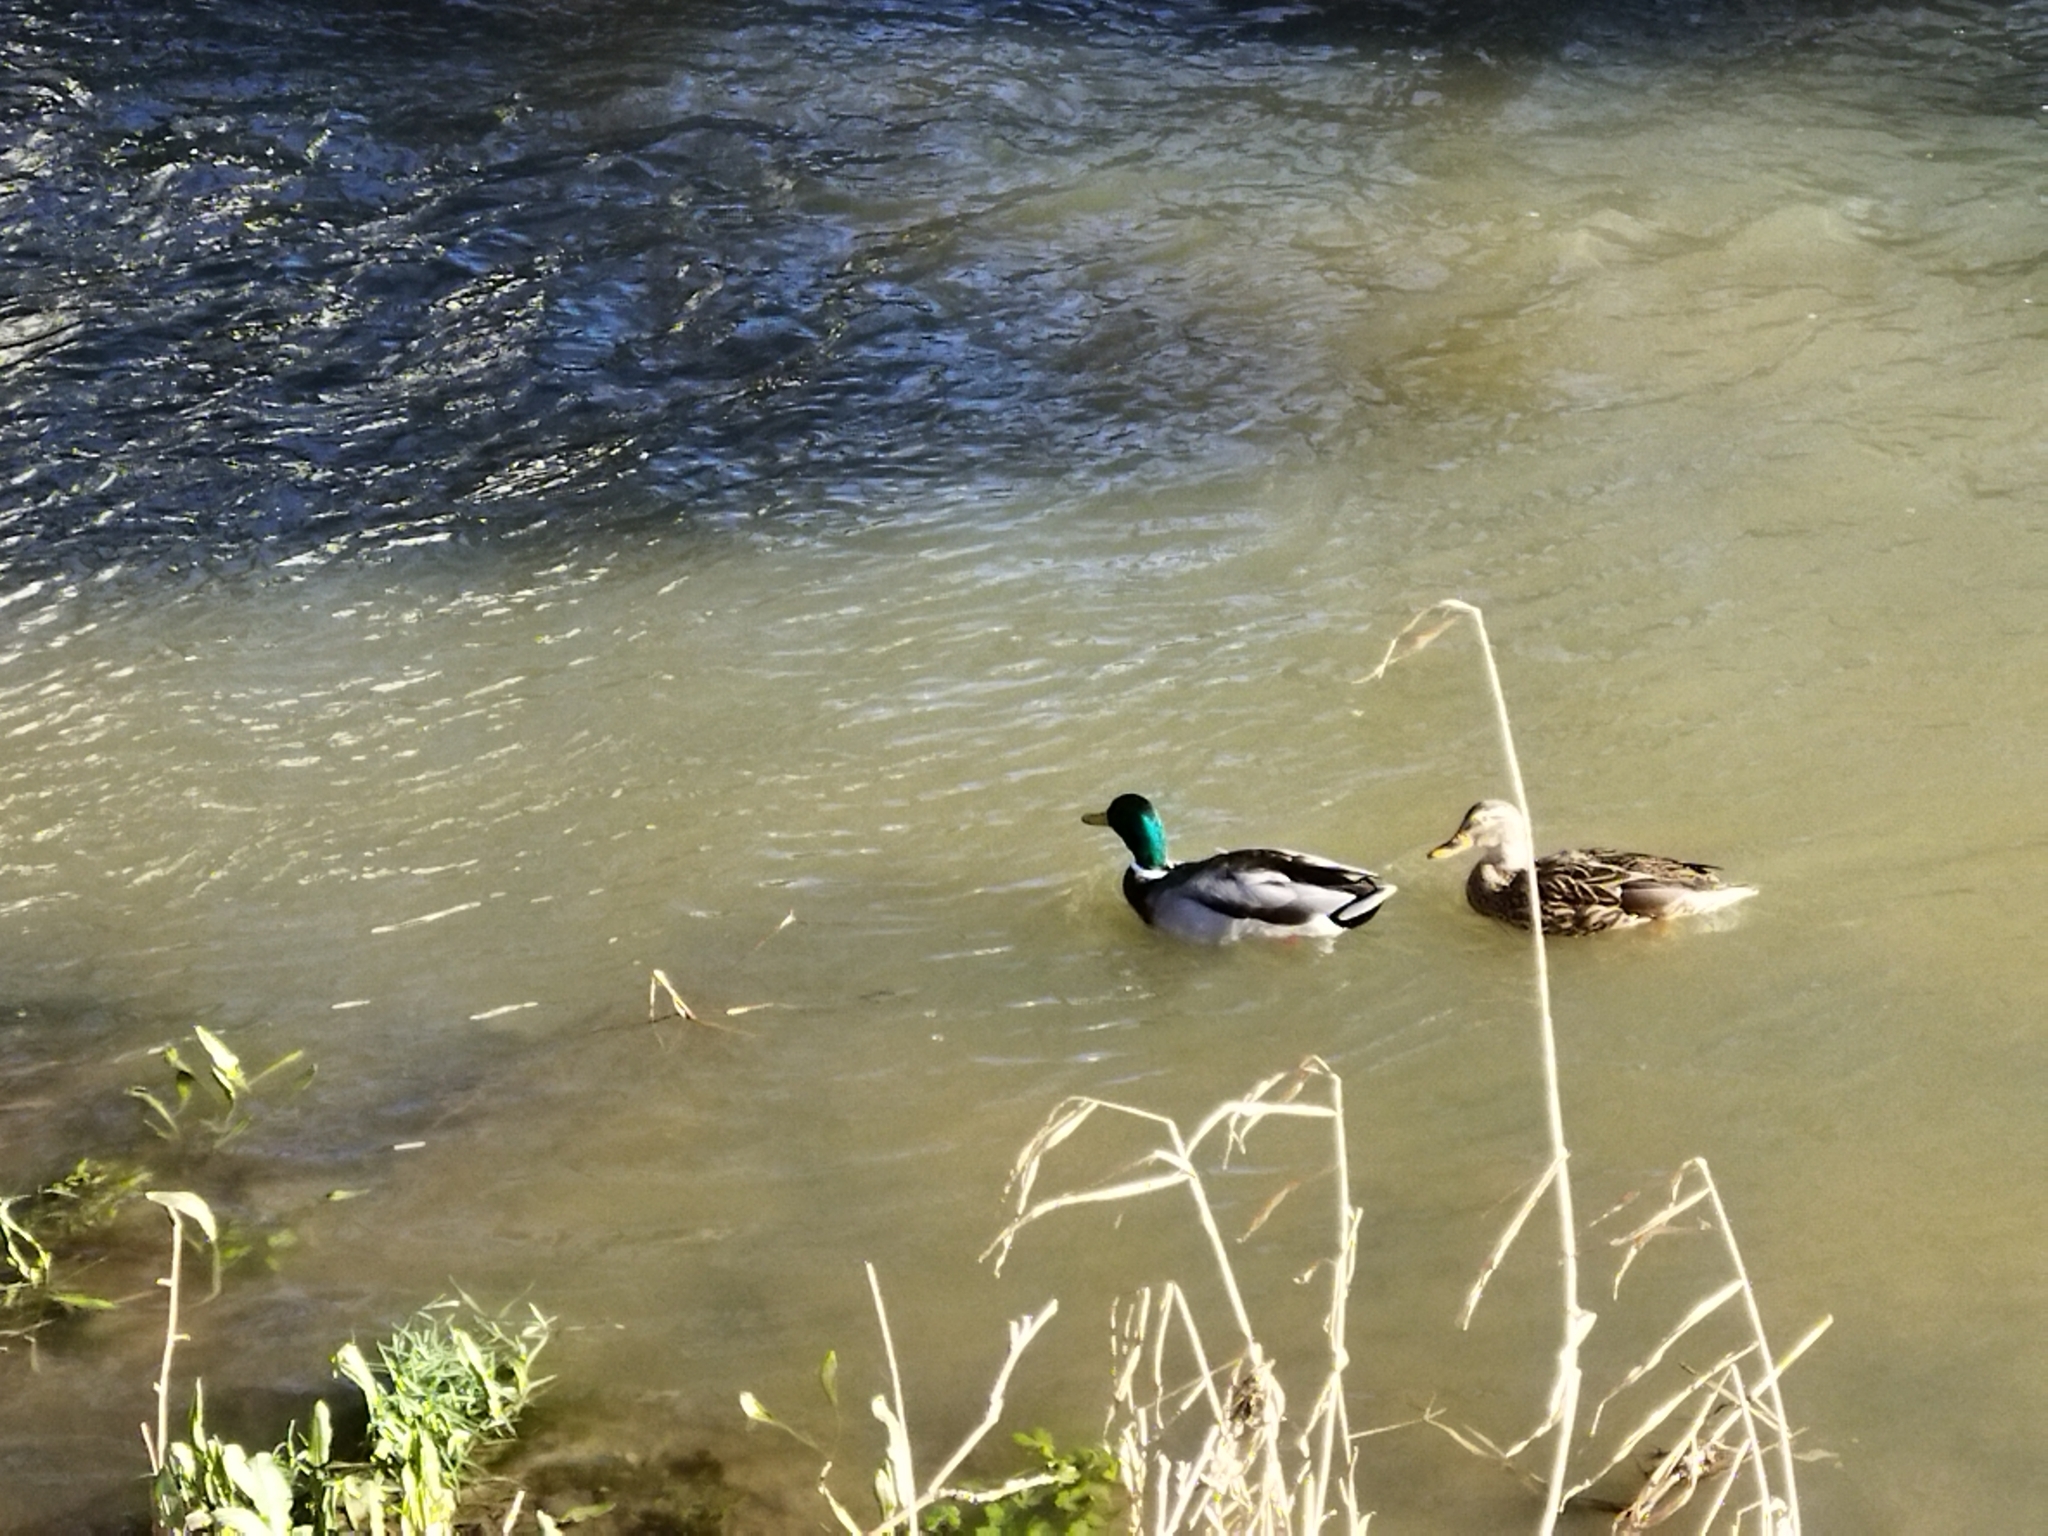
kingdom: Animalia
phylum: Chordata
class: Aves
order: Anseriformes
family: Anatidae
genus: Anas
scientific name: Anas platyrhynchos
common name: Mallard
